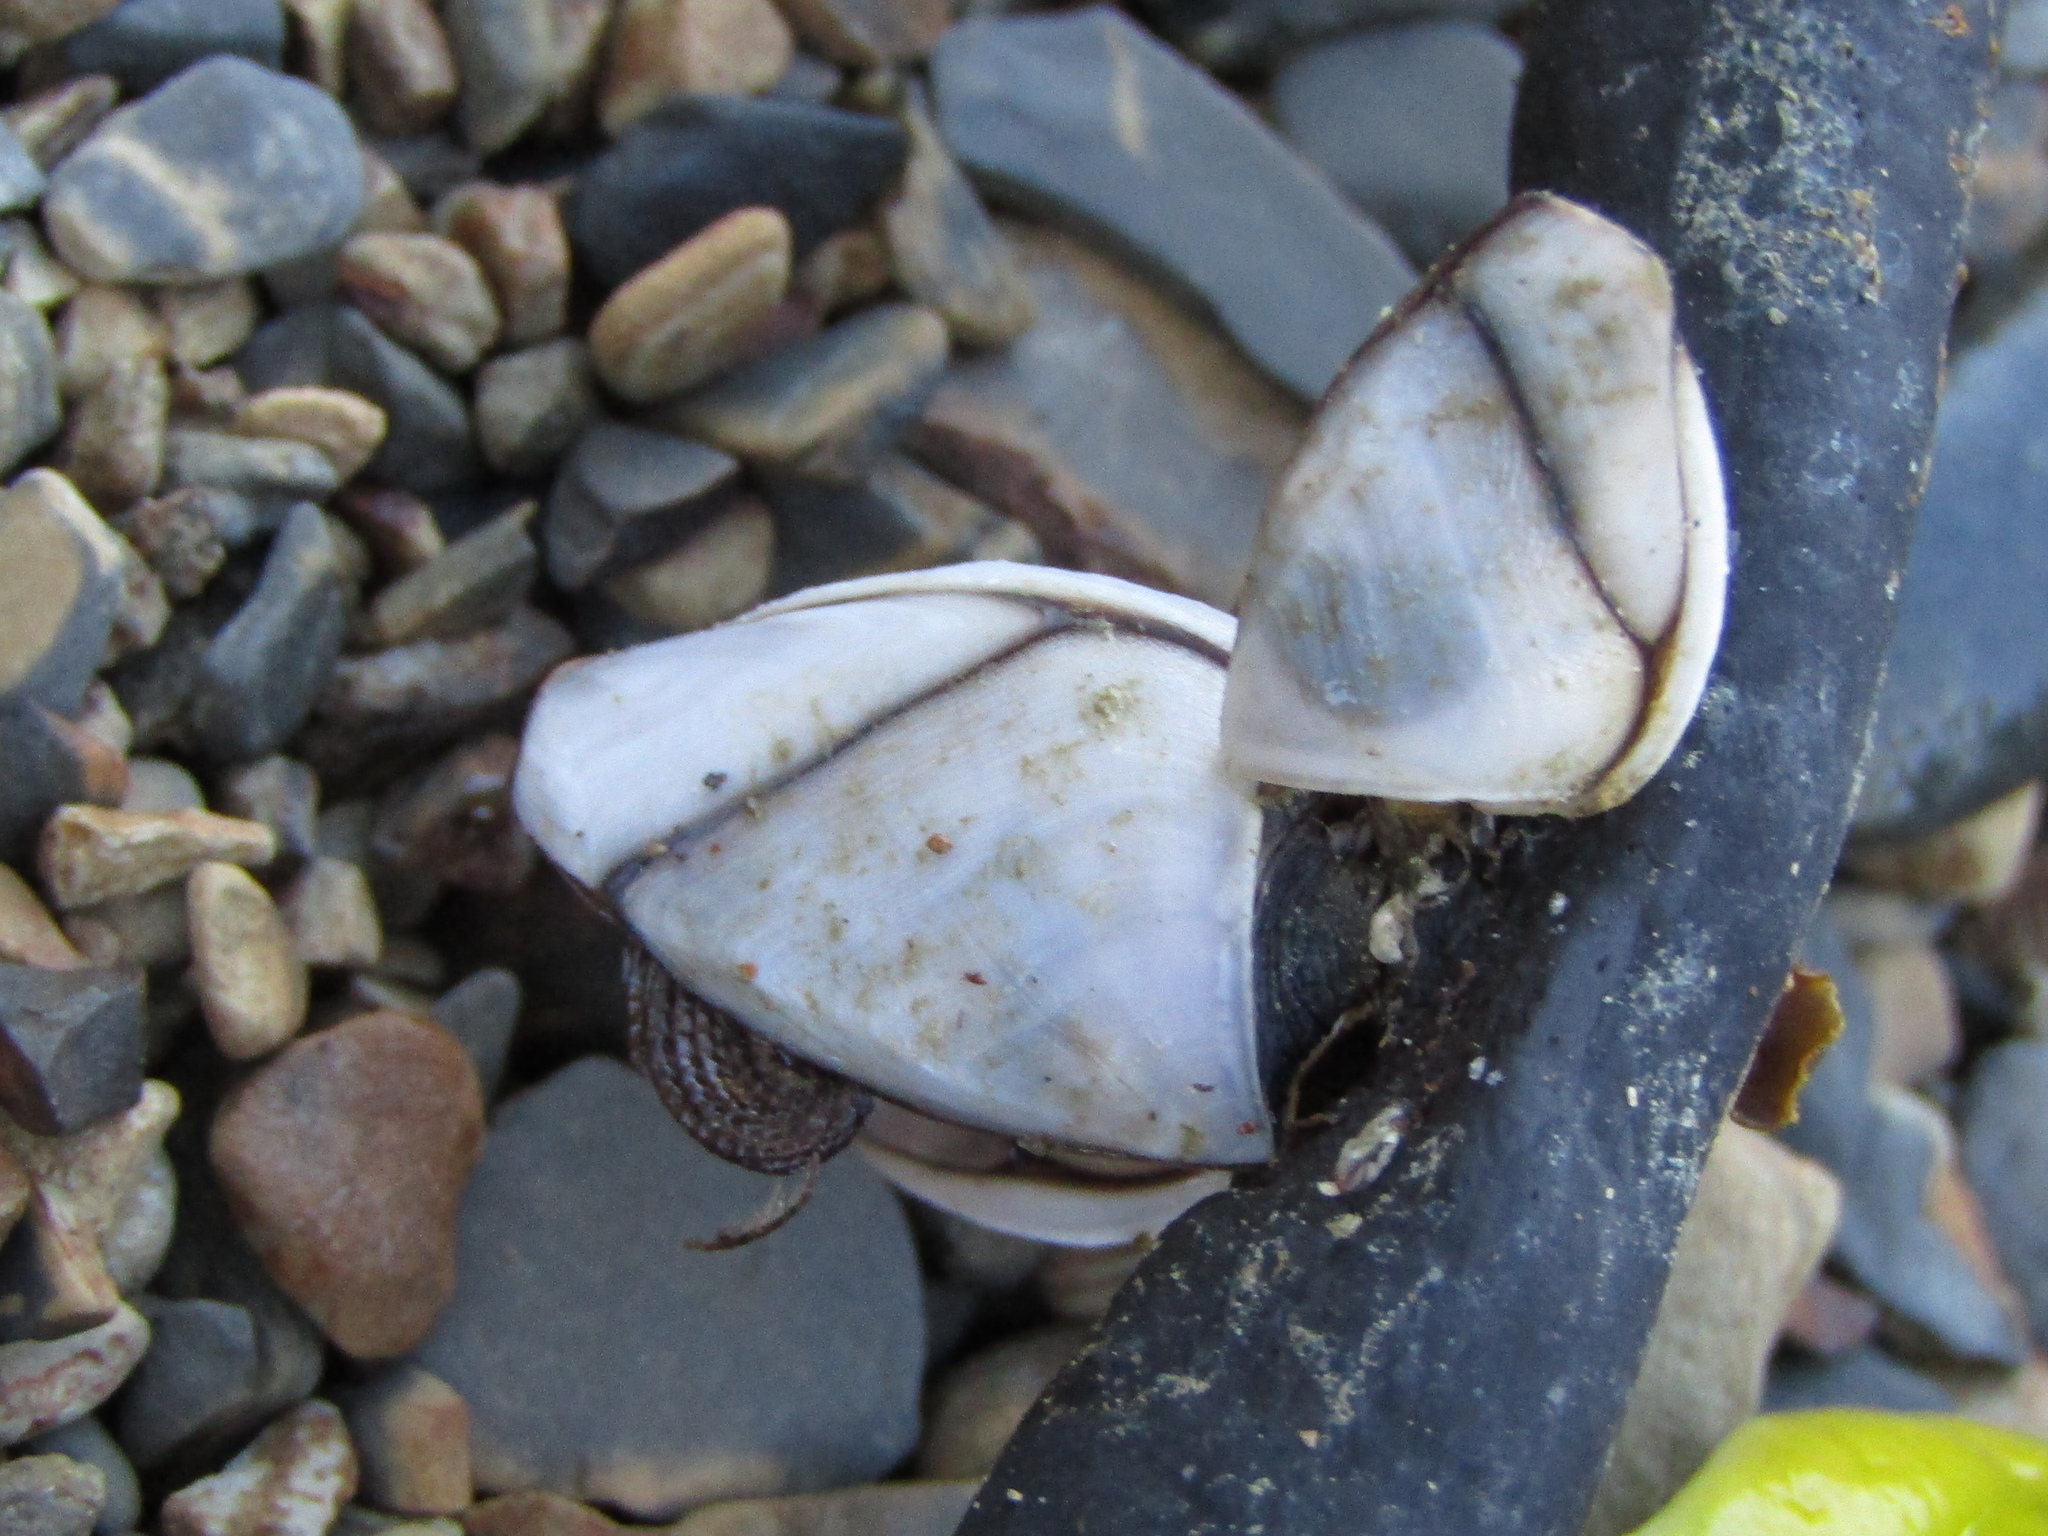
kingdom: Animalia
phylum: Arthropoda
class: Maxillopoda
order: Pedunculata
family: Lepadidae
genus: Lepas
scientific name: Lepas australis
